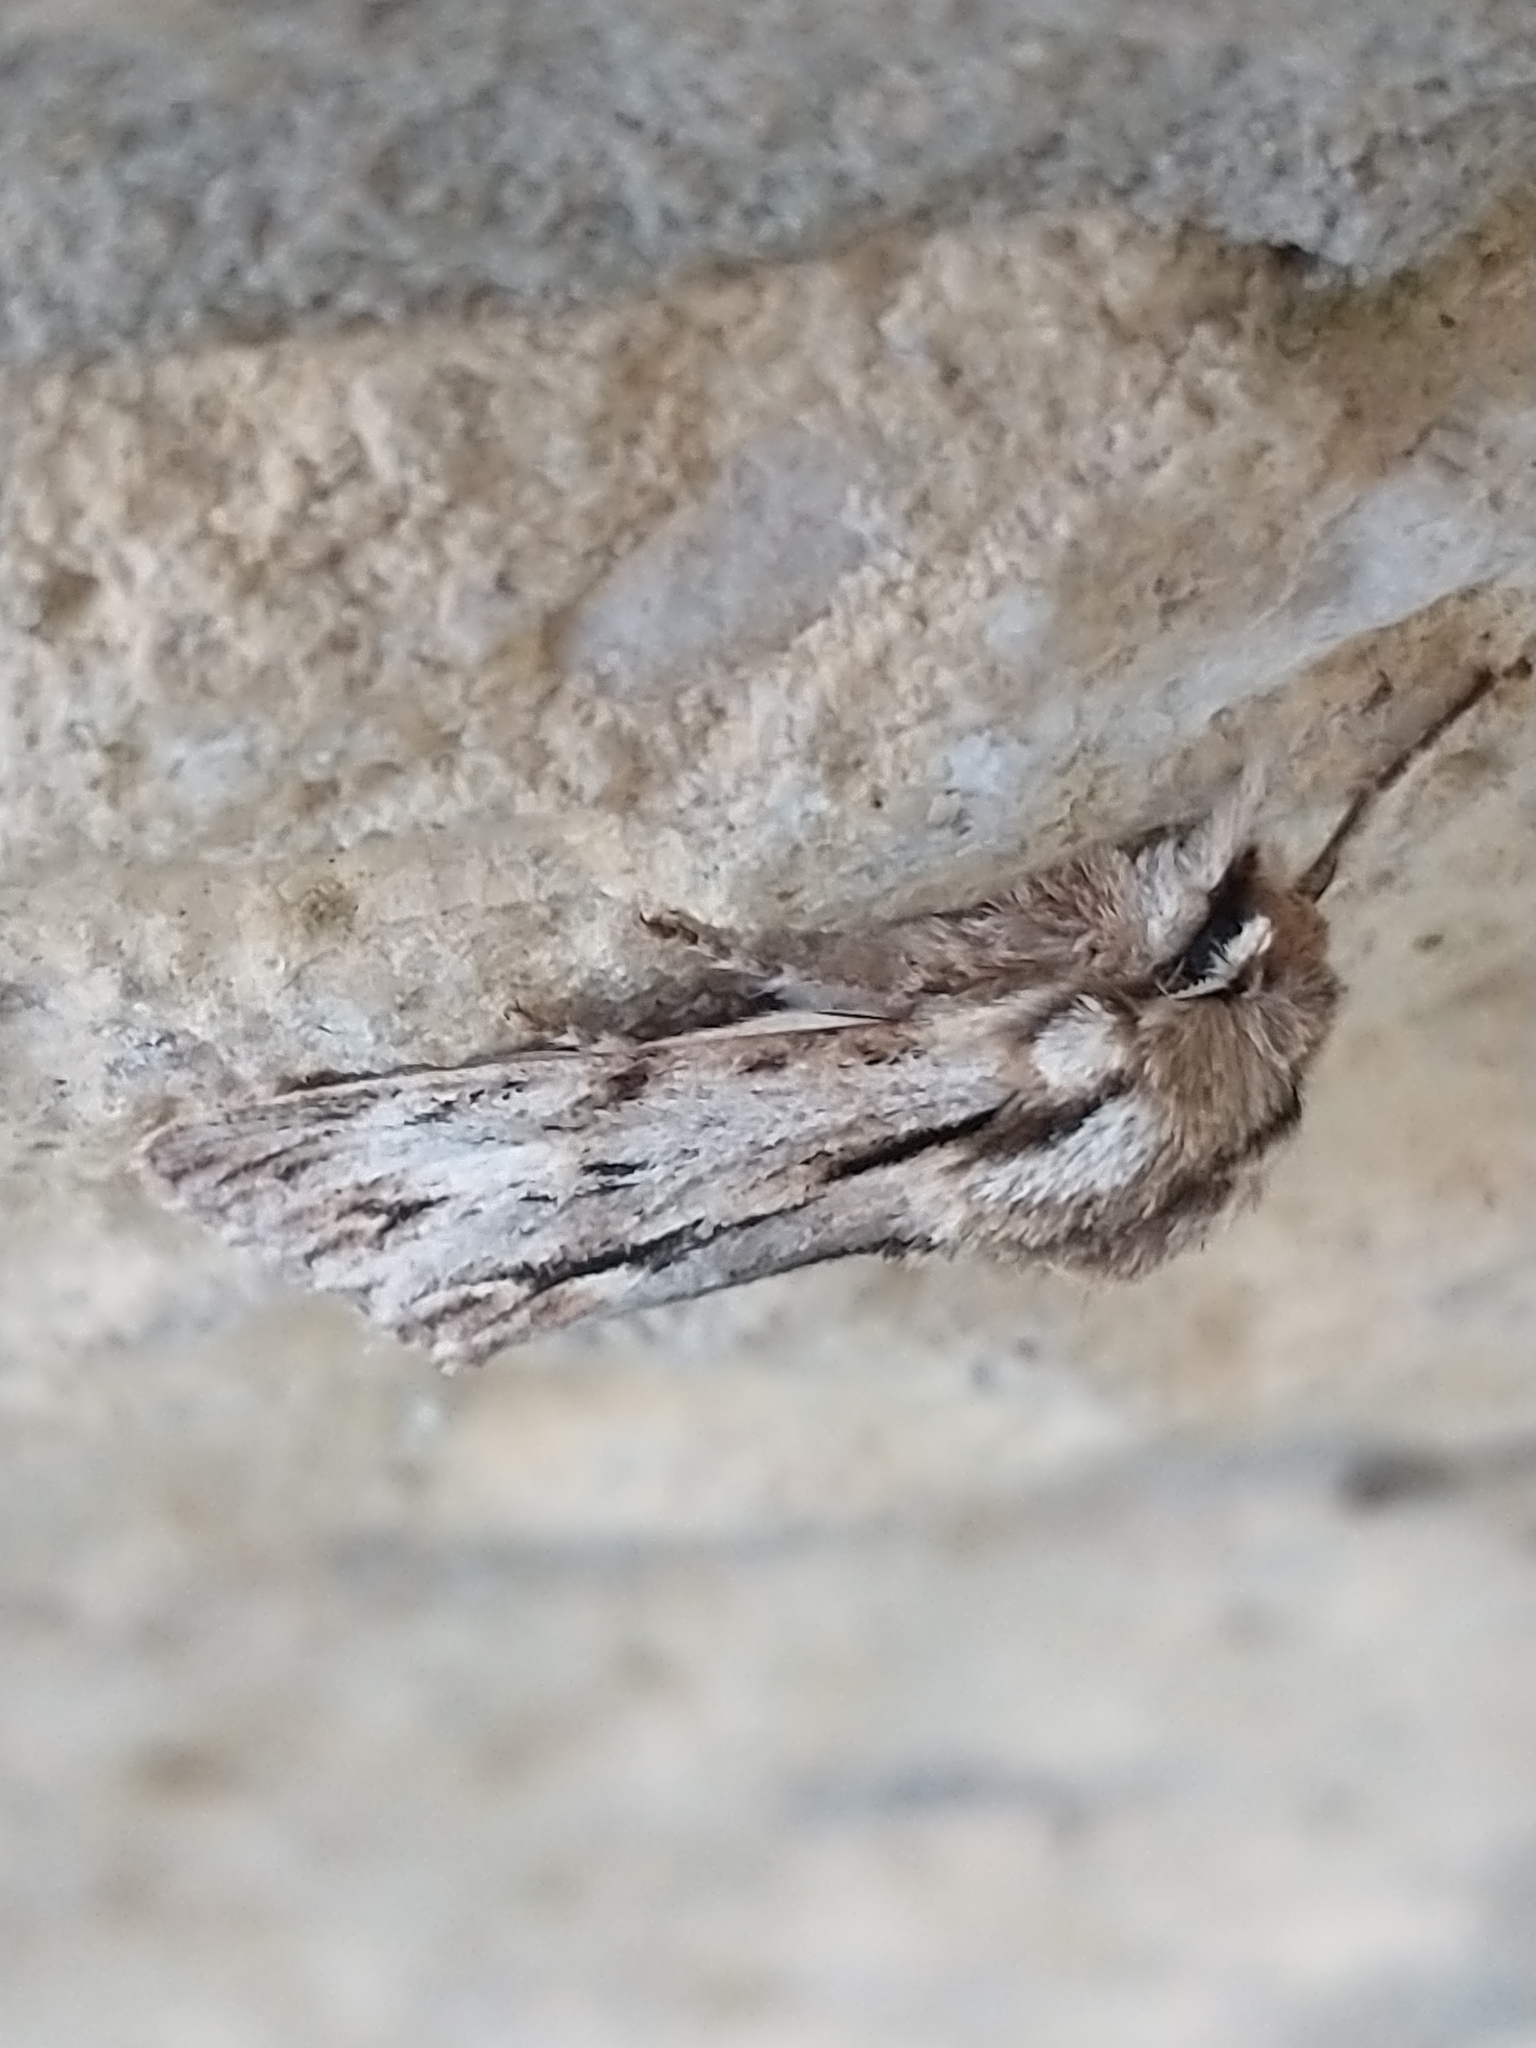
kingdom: Animalia
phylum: Arthropoda
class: Insecta
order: Lepidoptera
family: Noctuidae
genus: Asteroscopus
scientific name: Asteroscopus sphinx
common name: The sprawler
